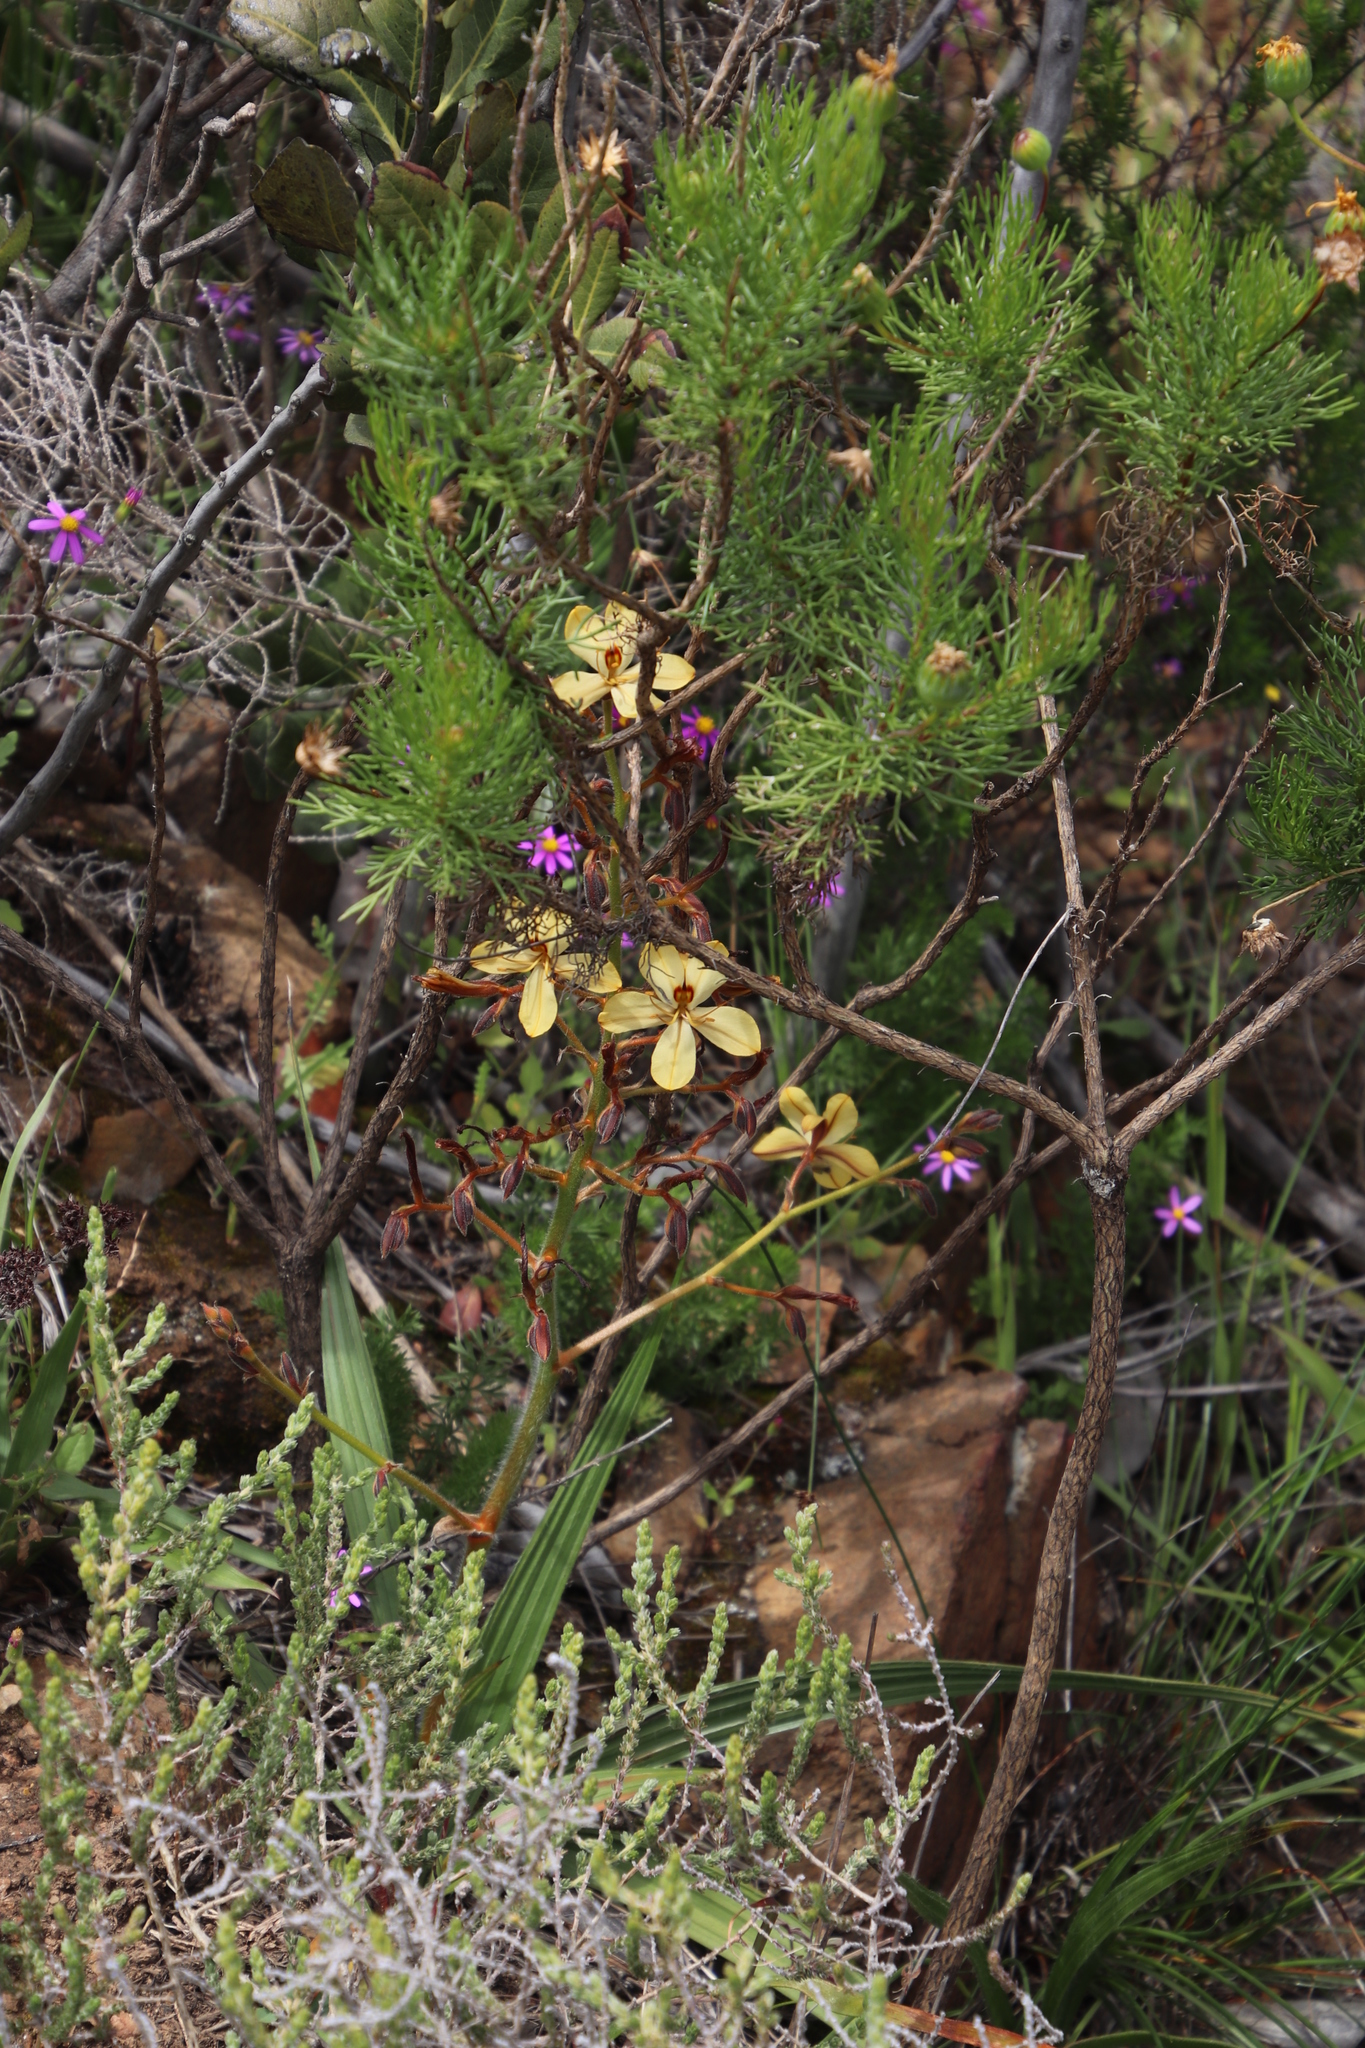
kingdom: Plantae
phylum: Tracheophyta
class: Liliopsida
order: Commelinales
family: Haemodoraceae
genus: Wachendorfia
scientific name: Wachendorfia paniculata
